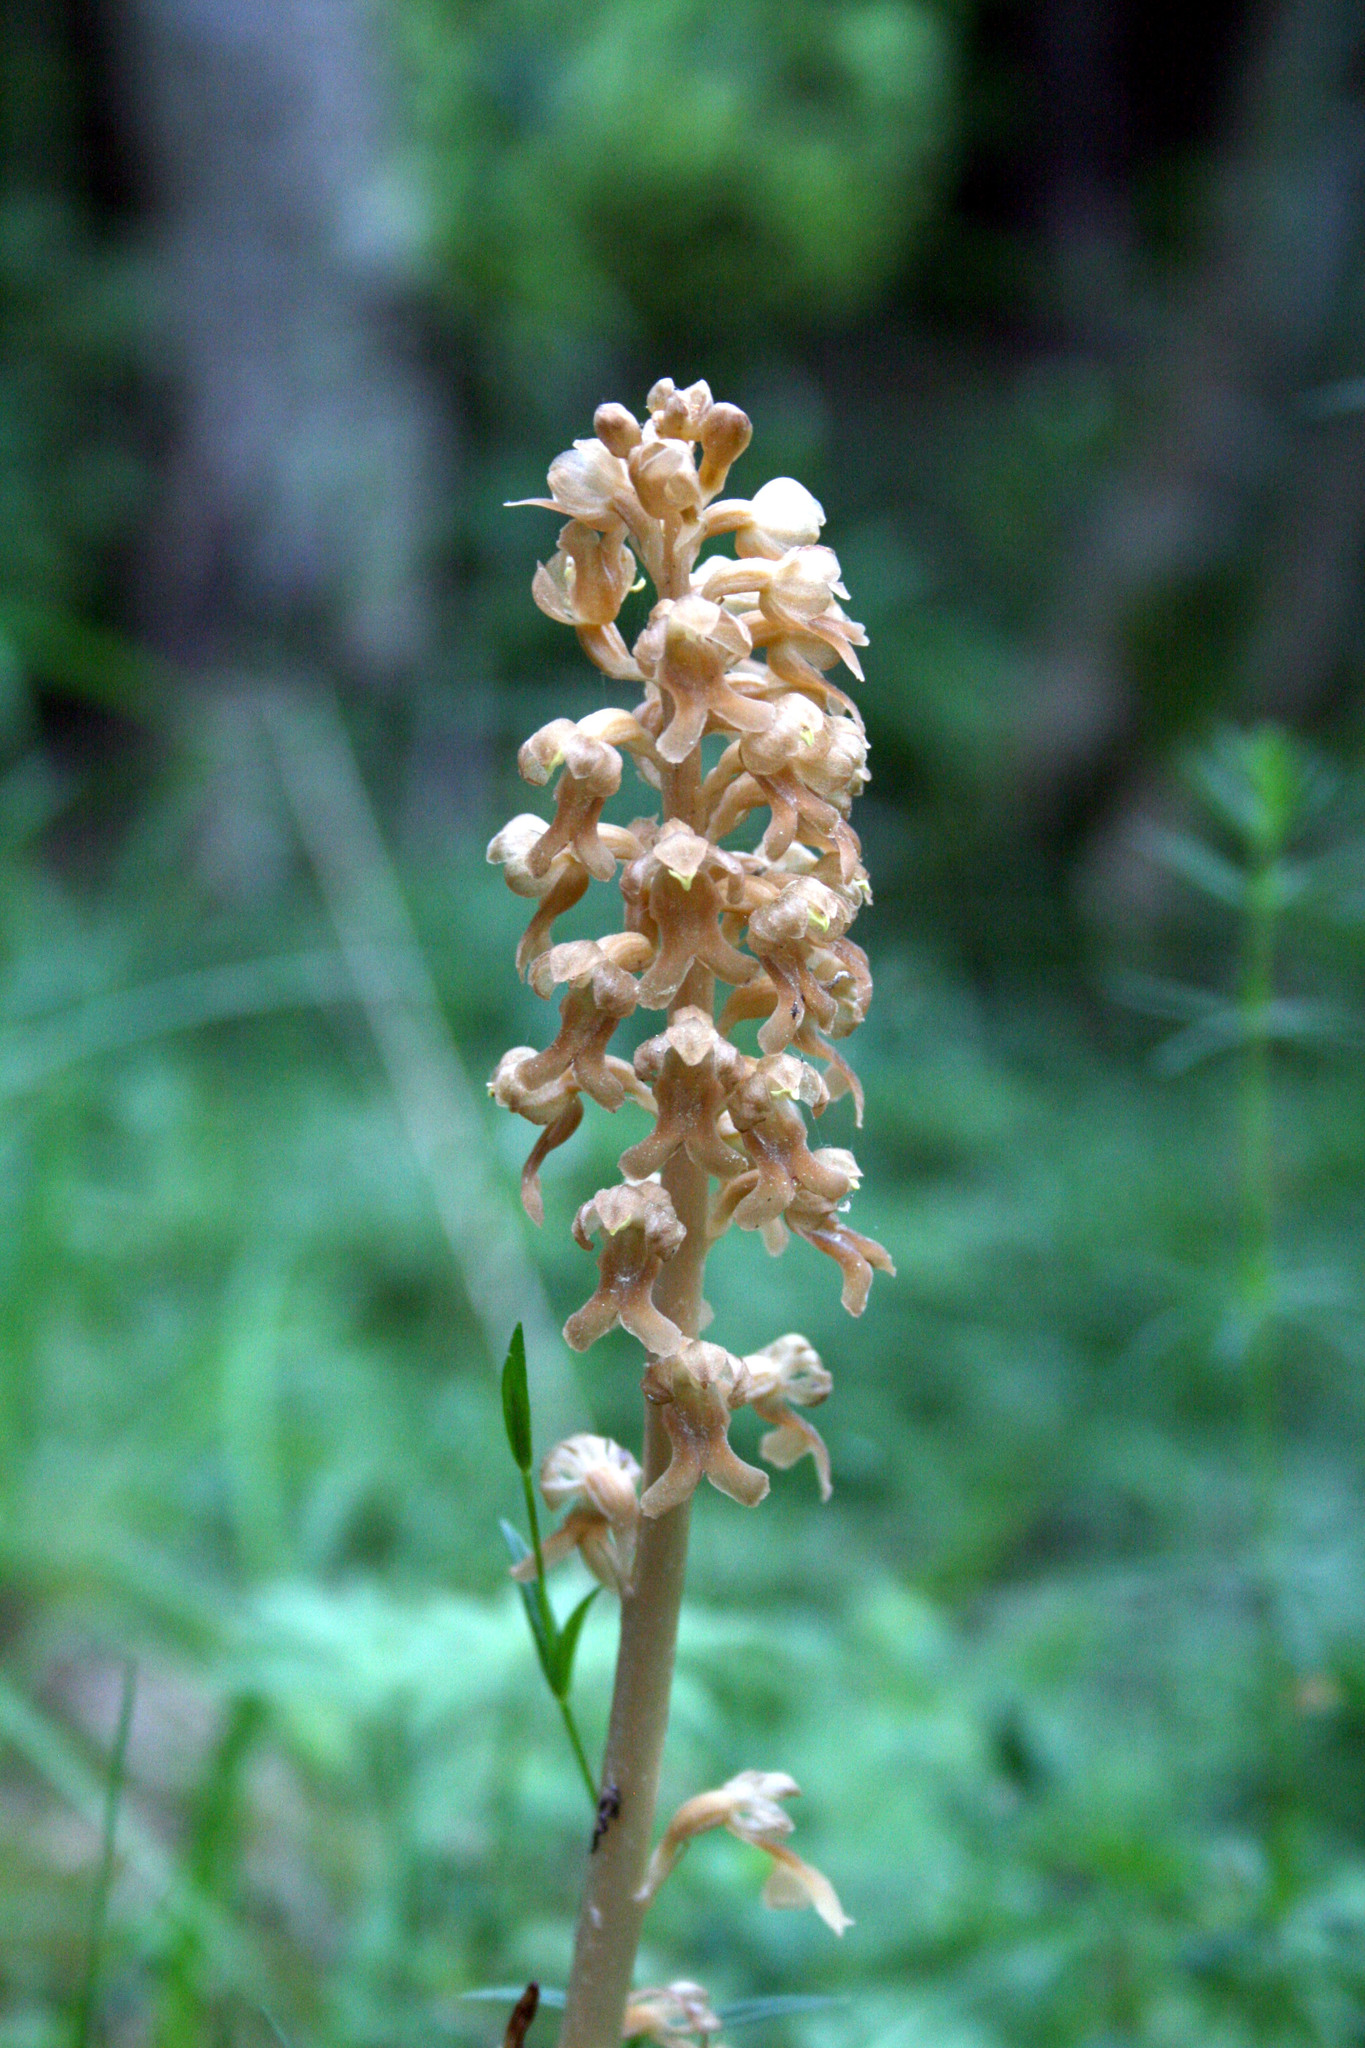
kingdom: Plantae
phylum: Tracheophyta
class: Liliopsida
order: Asparagales
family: Orchidaceae
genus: Neottia
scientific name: Neottia nidus-avis
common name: Bird's-nest orchid
